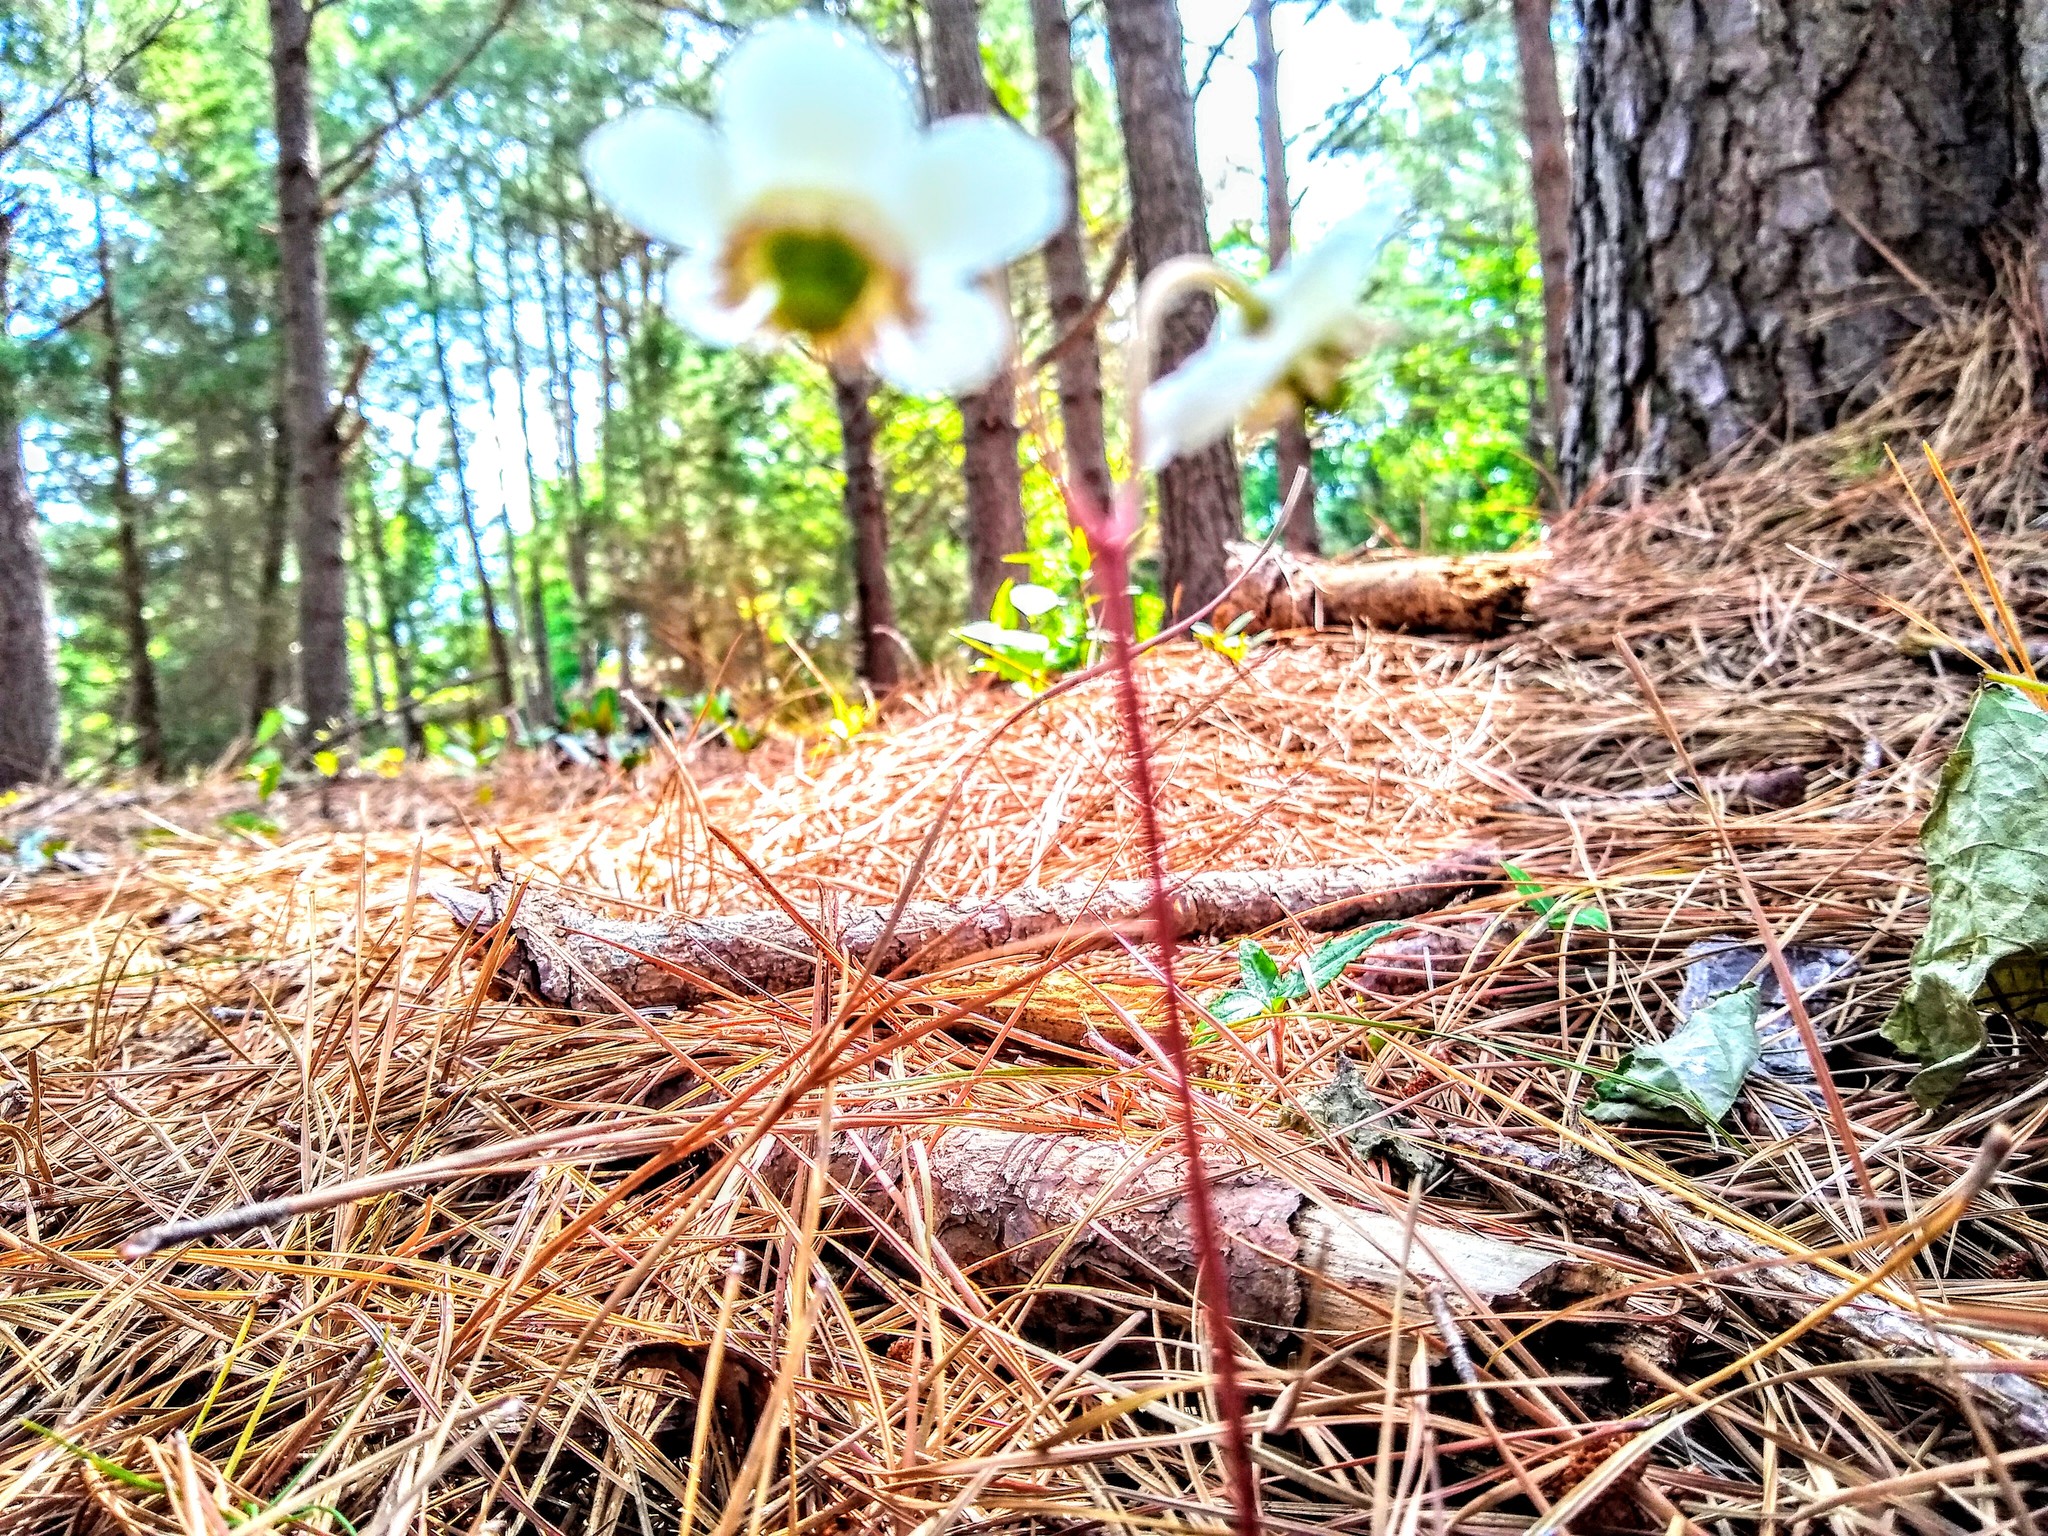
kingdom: Plantae
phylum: Tracheophyta
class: Magnoliopsida
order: Ericales
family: Ericaceae
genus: Chimaphila
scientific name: Chimaphila maculata
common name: Spotted pipsissewa
